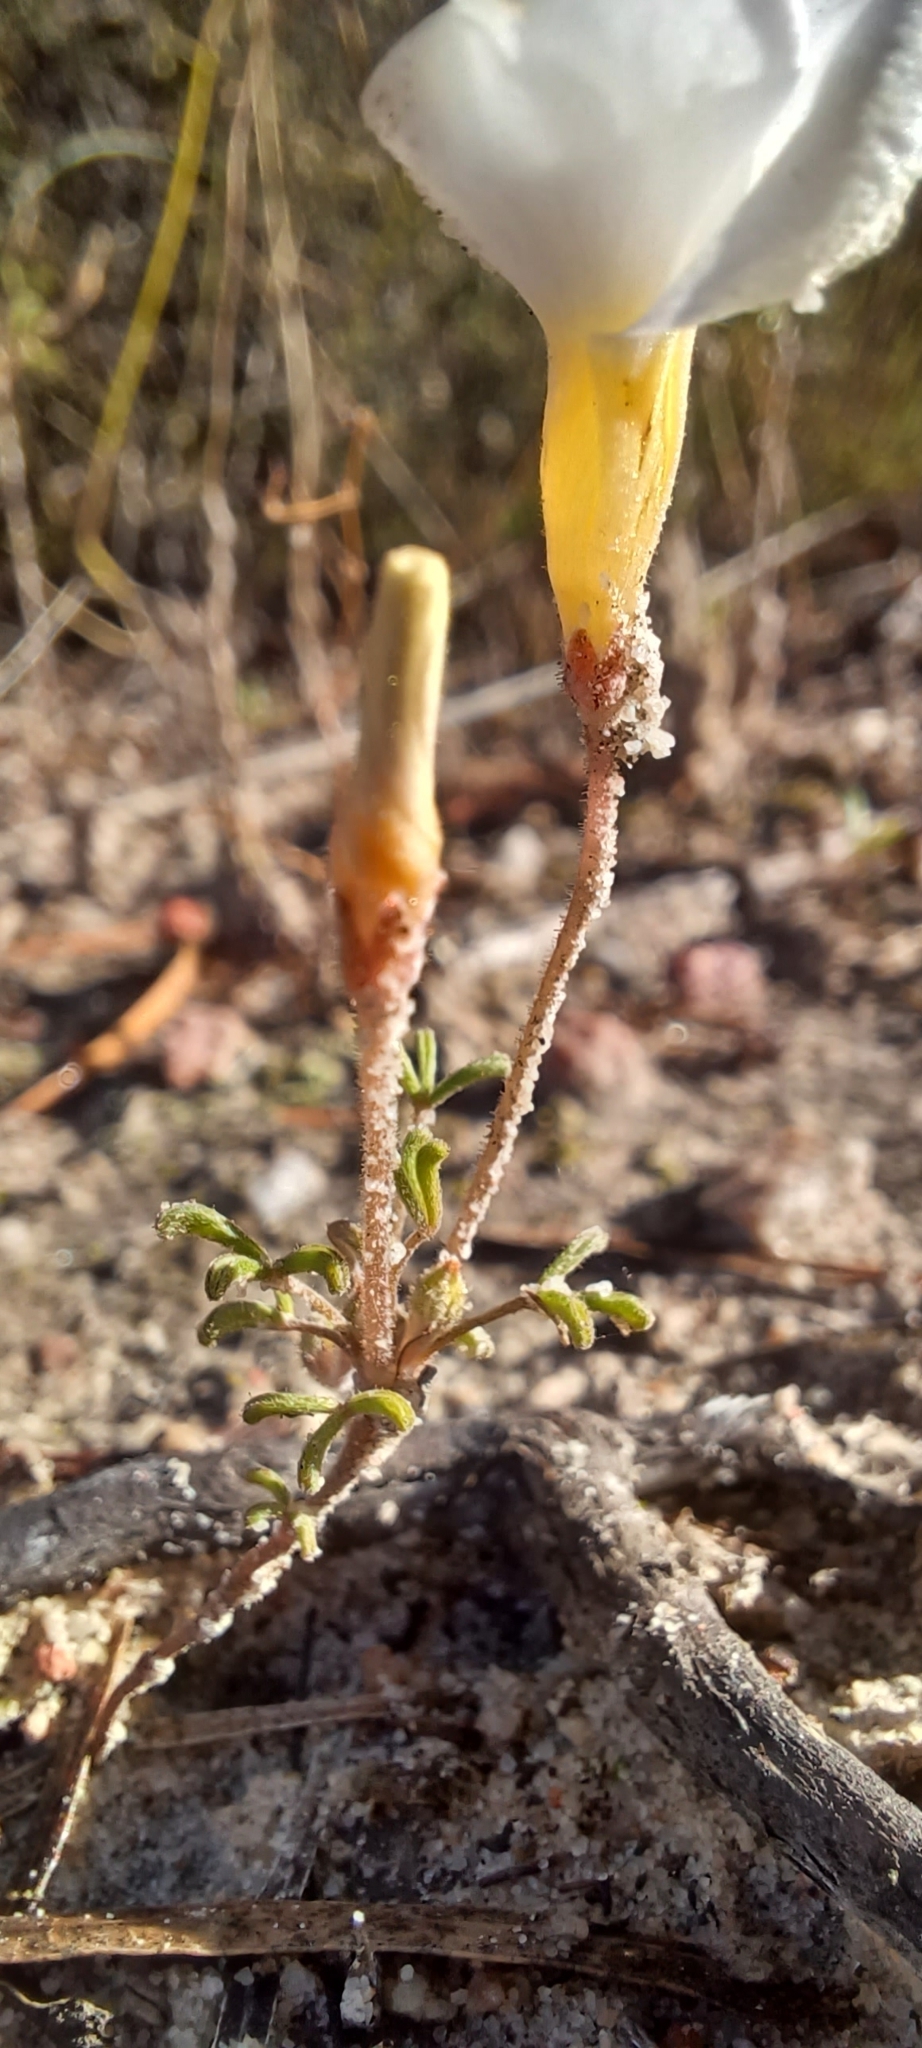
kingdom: Plantae
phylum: Tracheophyta
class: Magnoliopsida
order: Oxalidales
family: Oxalidaceae
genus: Oxalis
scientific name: Oxalis ciliaris
